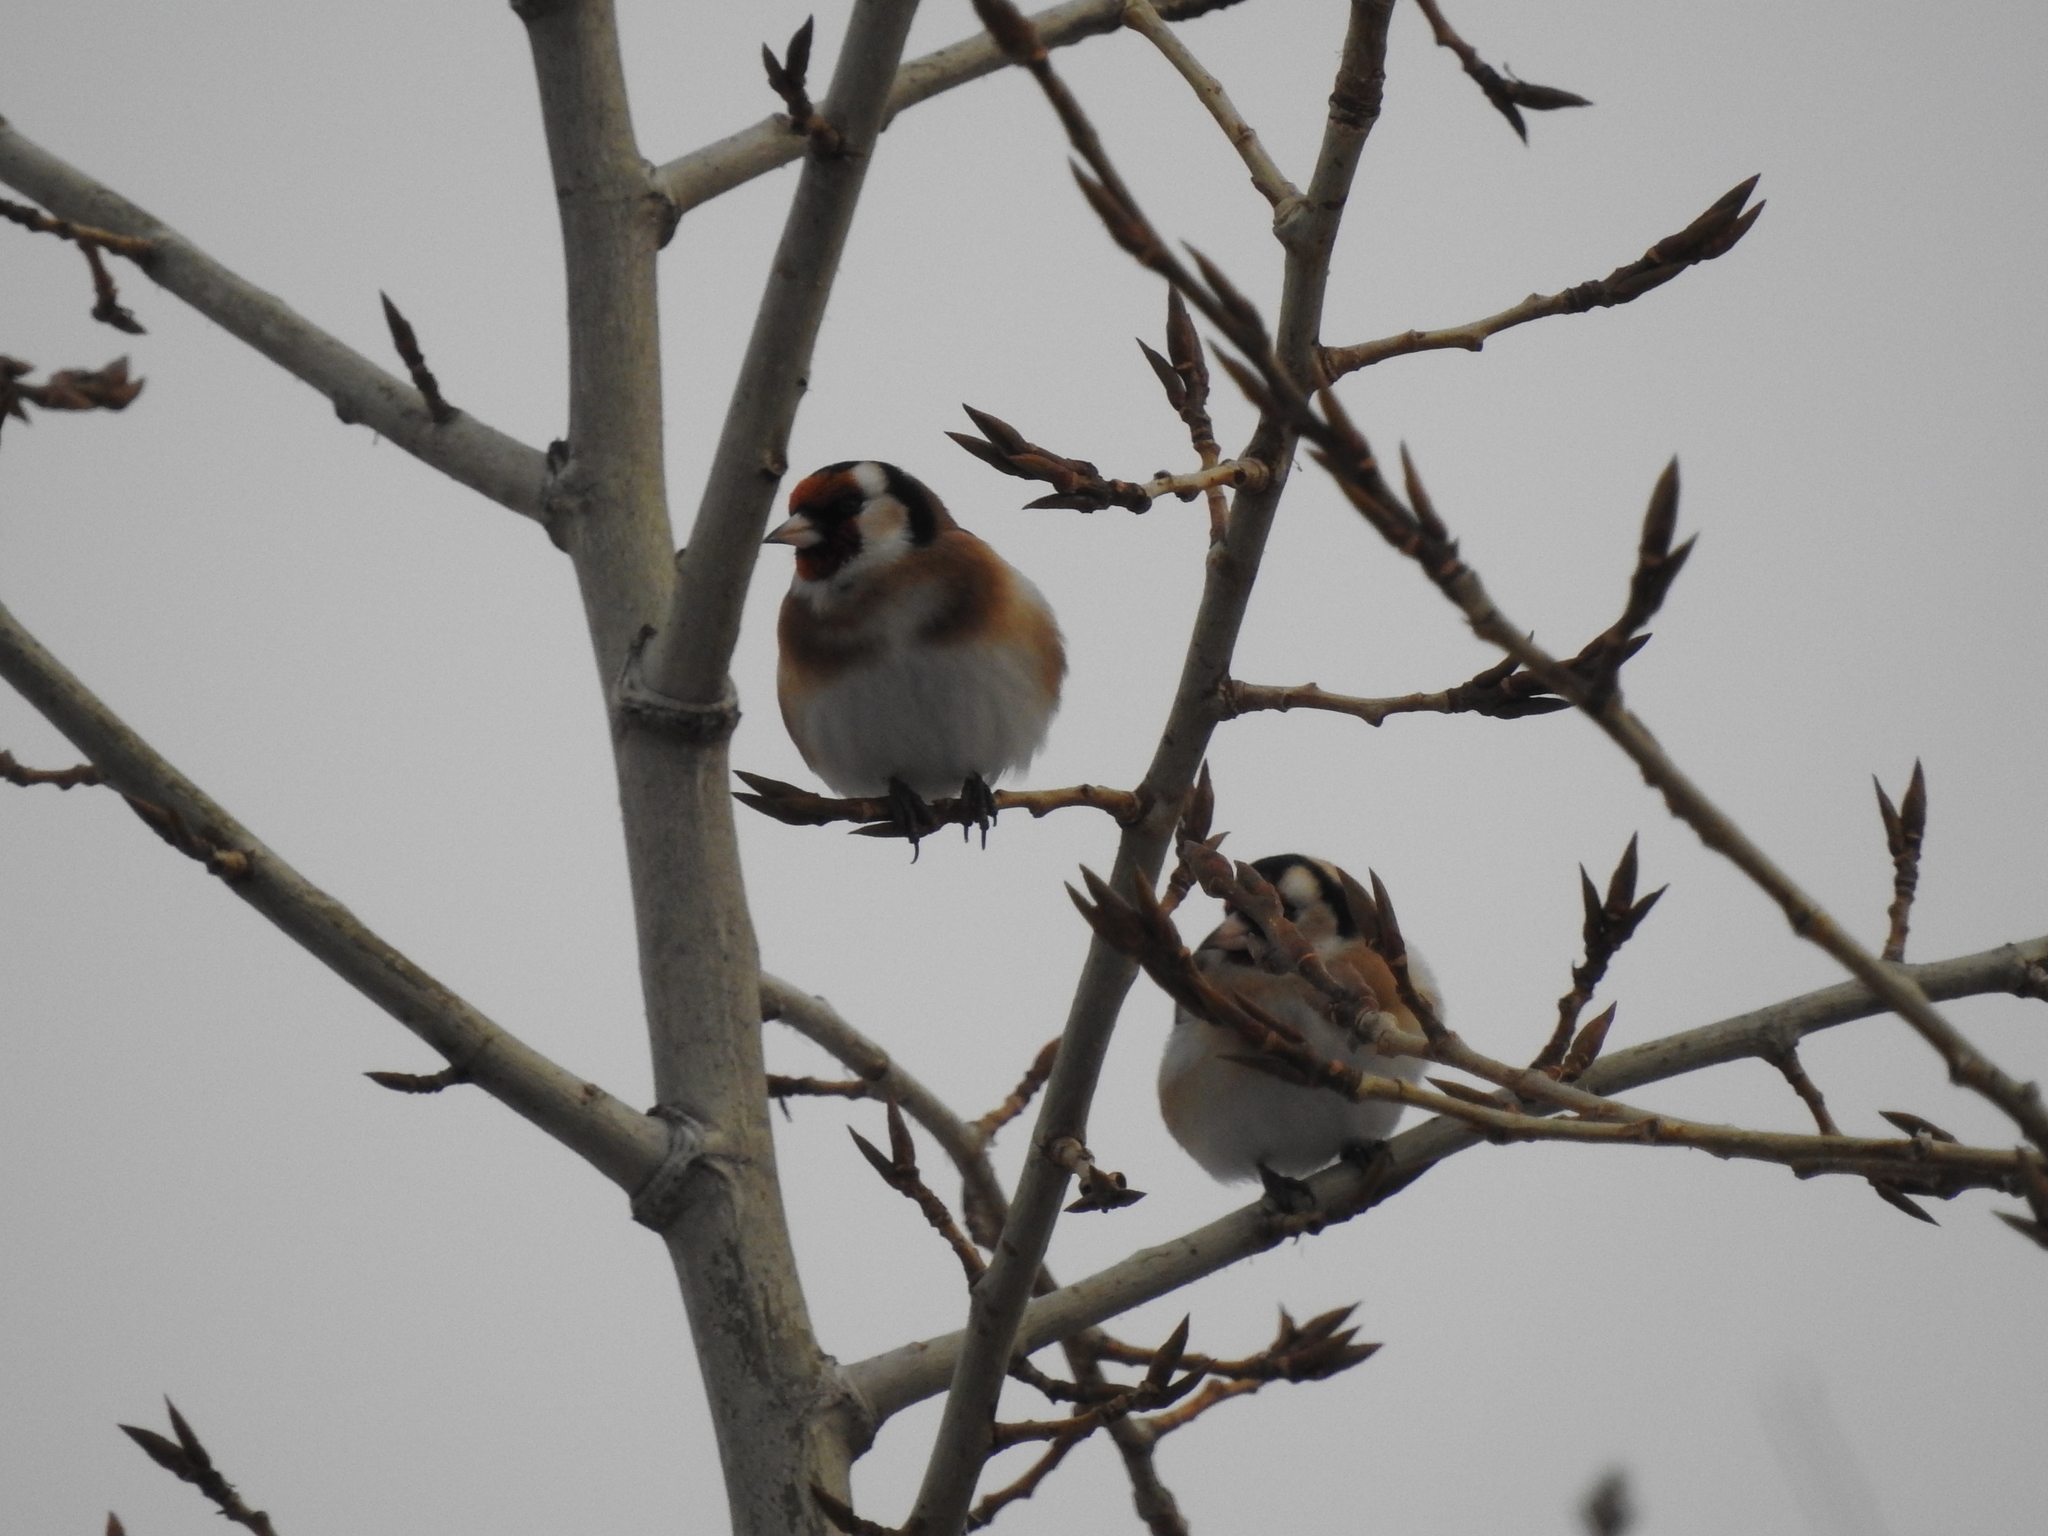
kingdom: Animalia
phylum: Chordata
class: Aves
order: Passeriformes
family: Fringillidae
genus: Carduelis
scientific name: Carduelis carduelis
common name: European goldfinch
